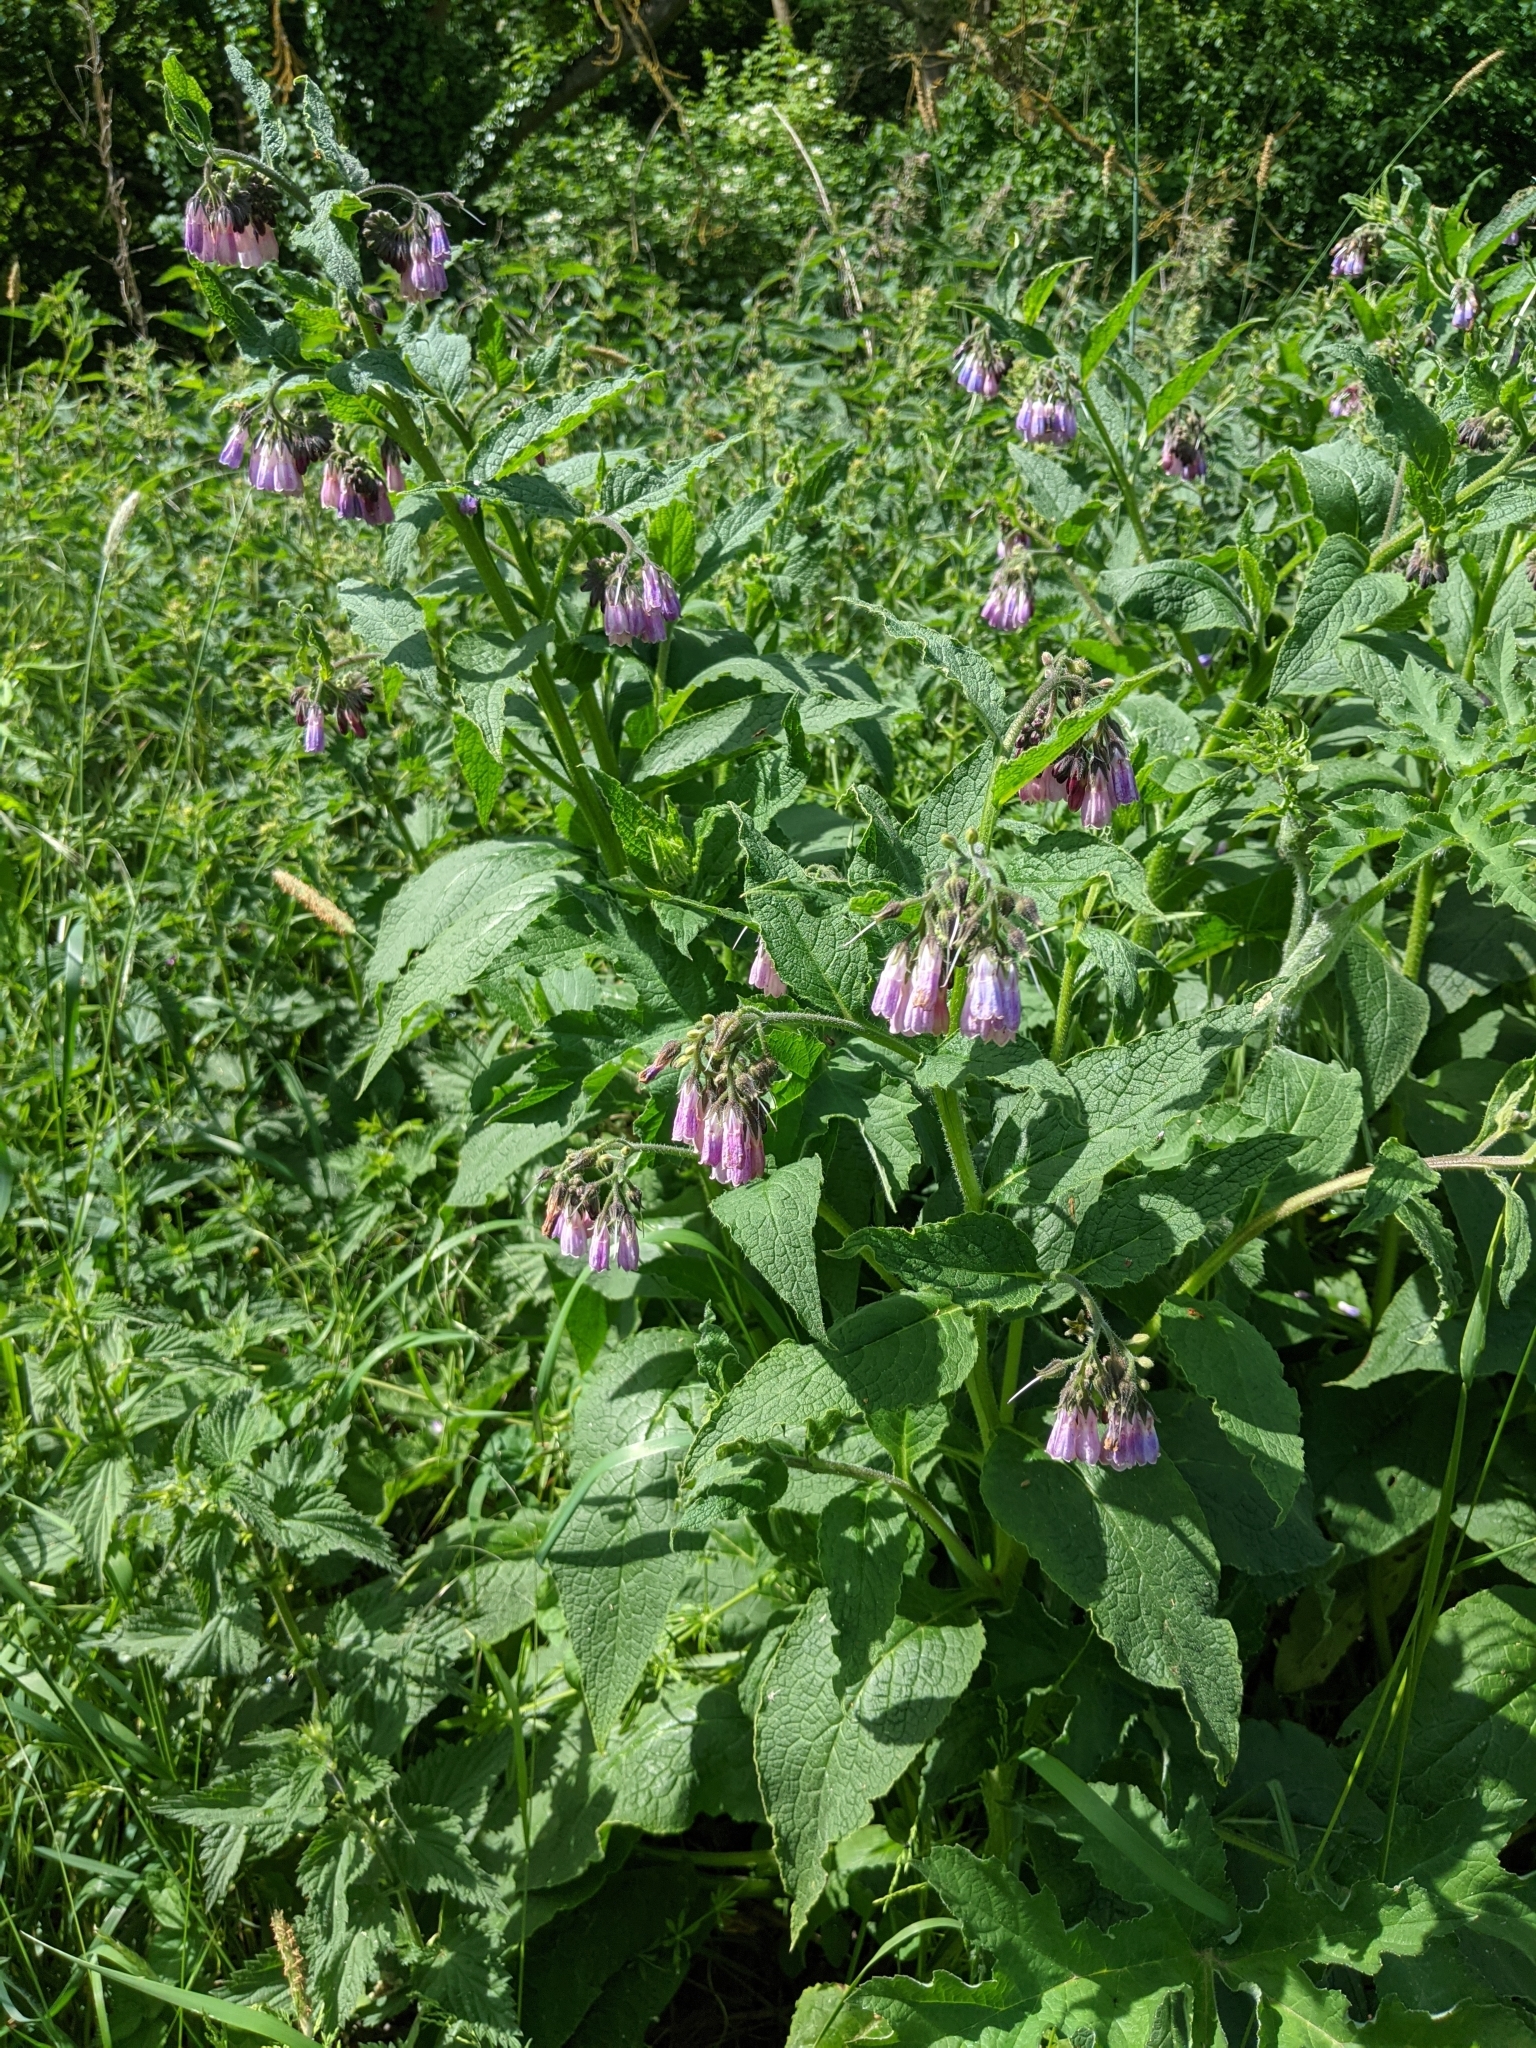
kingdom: Plantae
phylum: Tracheophyta
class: Magnoliopsida
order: Boraginales
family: Boraginaceae
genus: Symphytum
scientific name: Symphytum officinale
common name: Common comfrey
